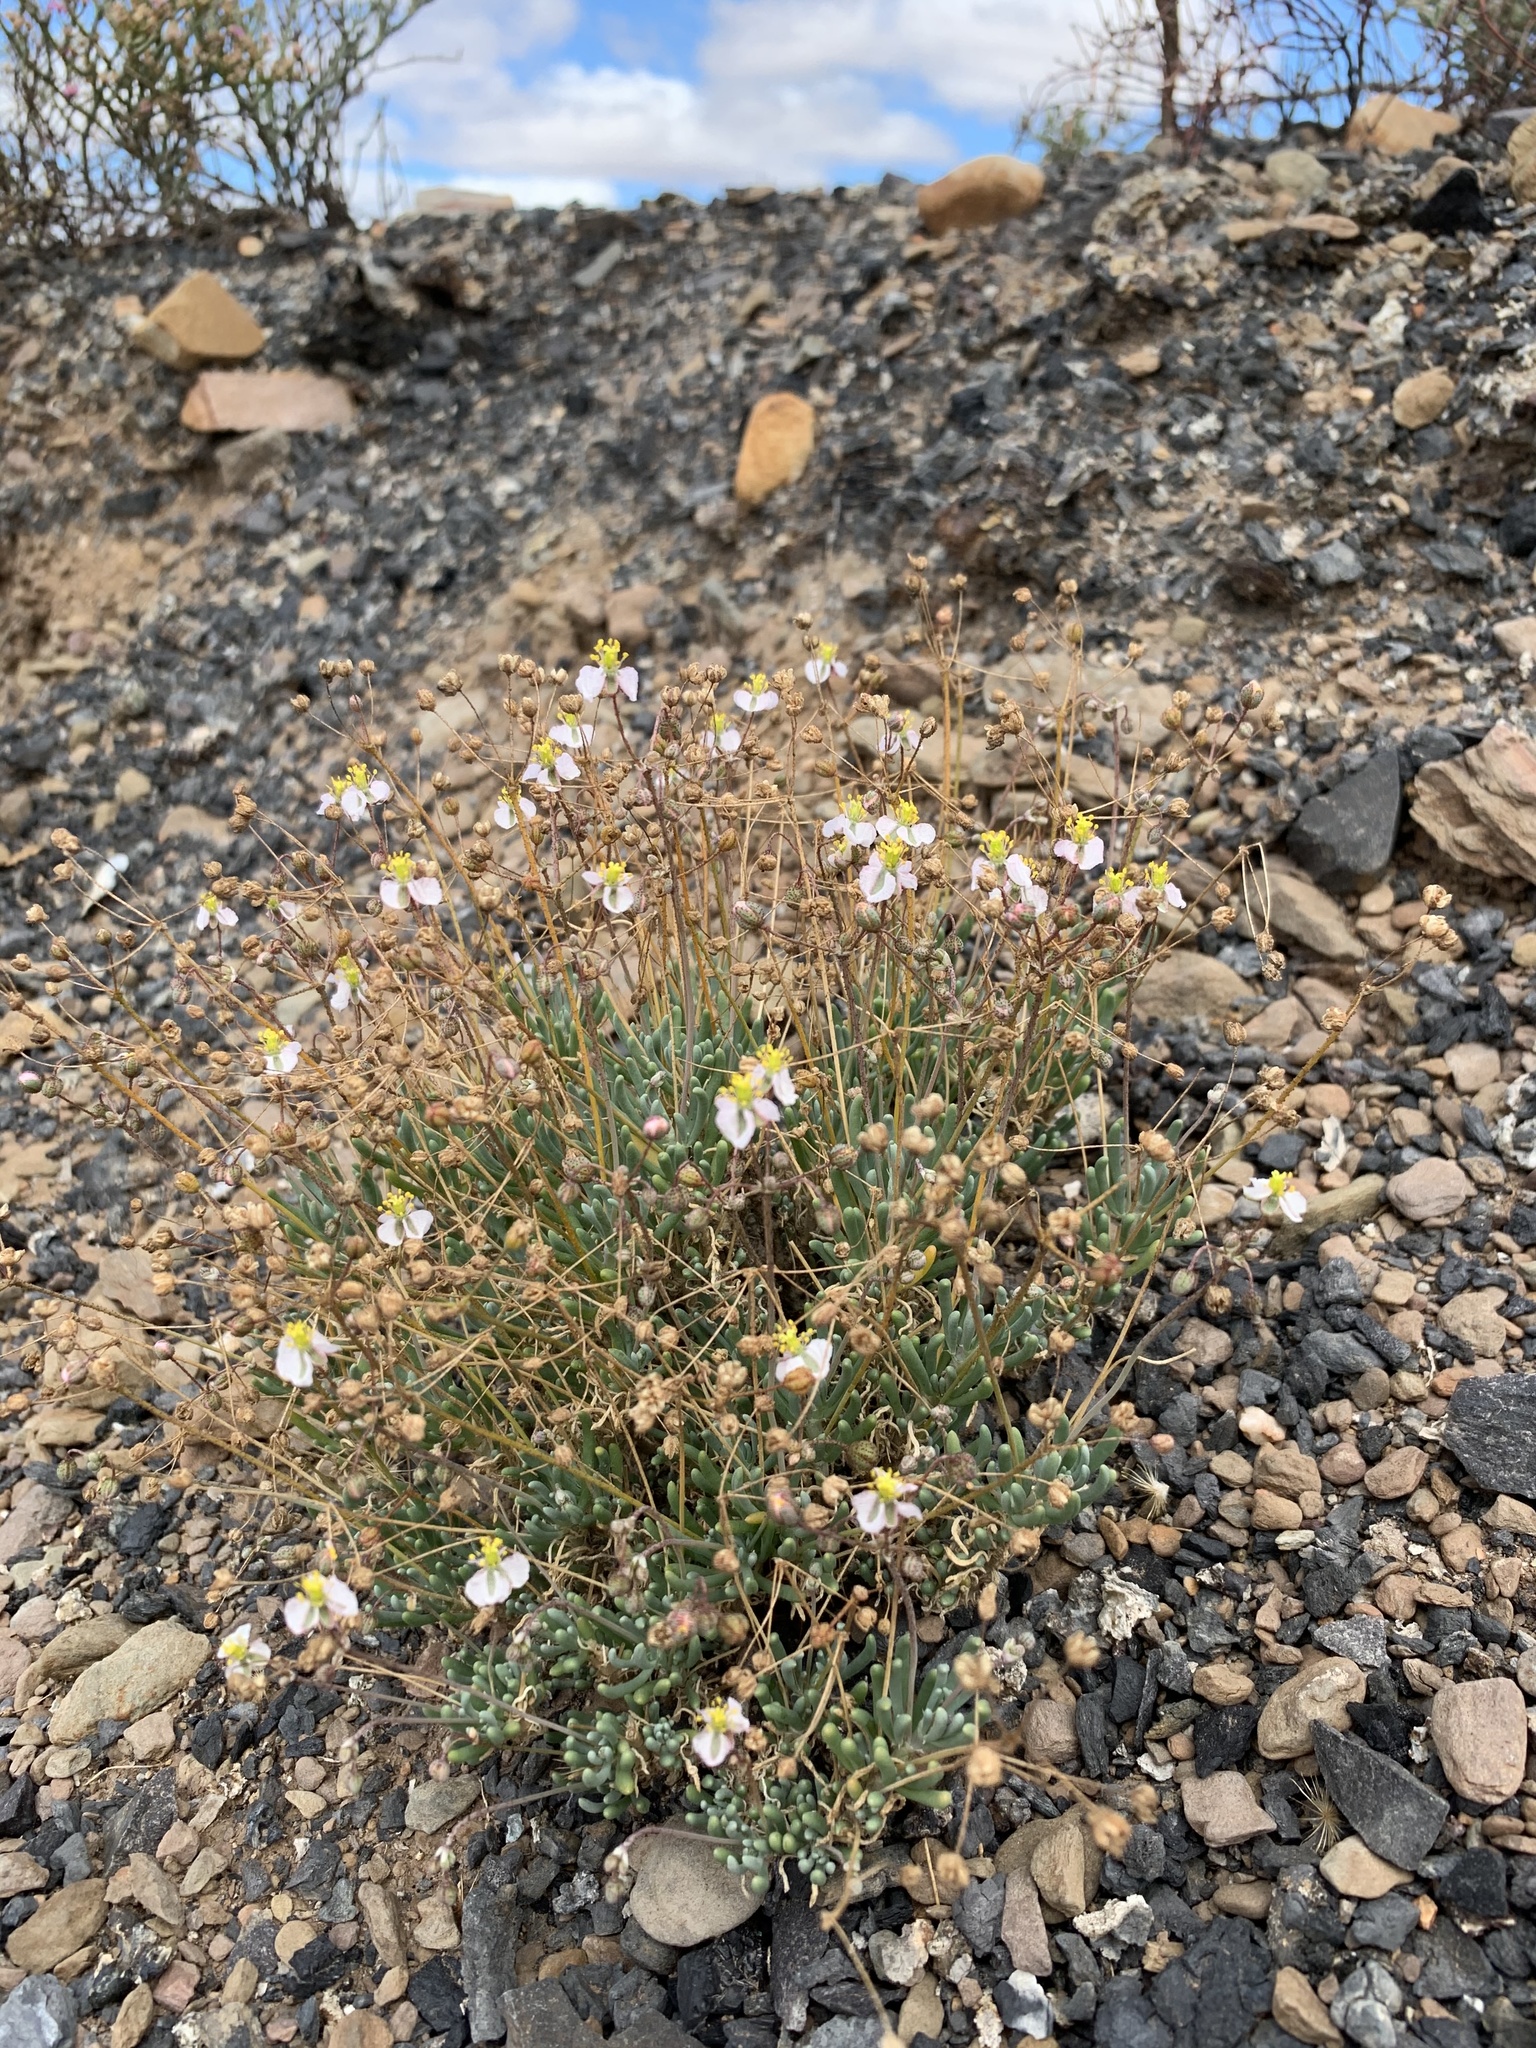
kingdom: Plantae
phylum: Tracheophyta
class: Magnoliopsida
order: Caryophyllales
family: Kewaceae
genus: Kewa
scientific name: Kewa salsoloides
